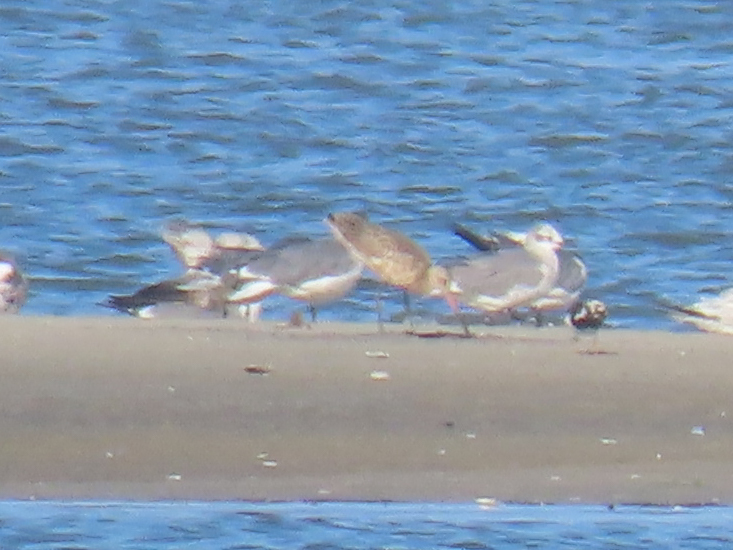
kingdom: Animalia
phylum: Chordata
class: Aves
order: Charadriiformes
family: Scolopacidae
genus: Limosa
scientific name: Limosa fedoa
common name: Marbled godwit
